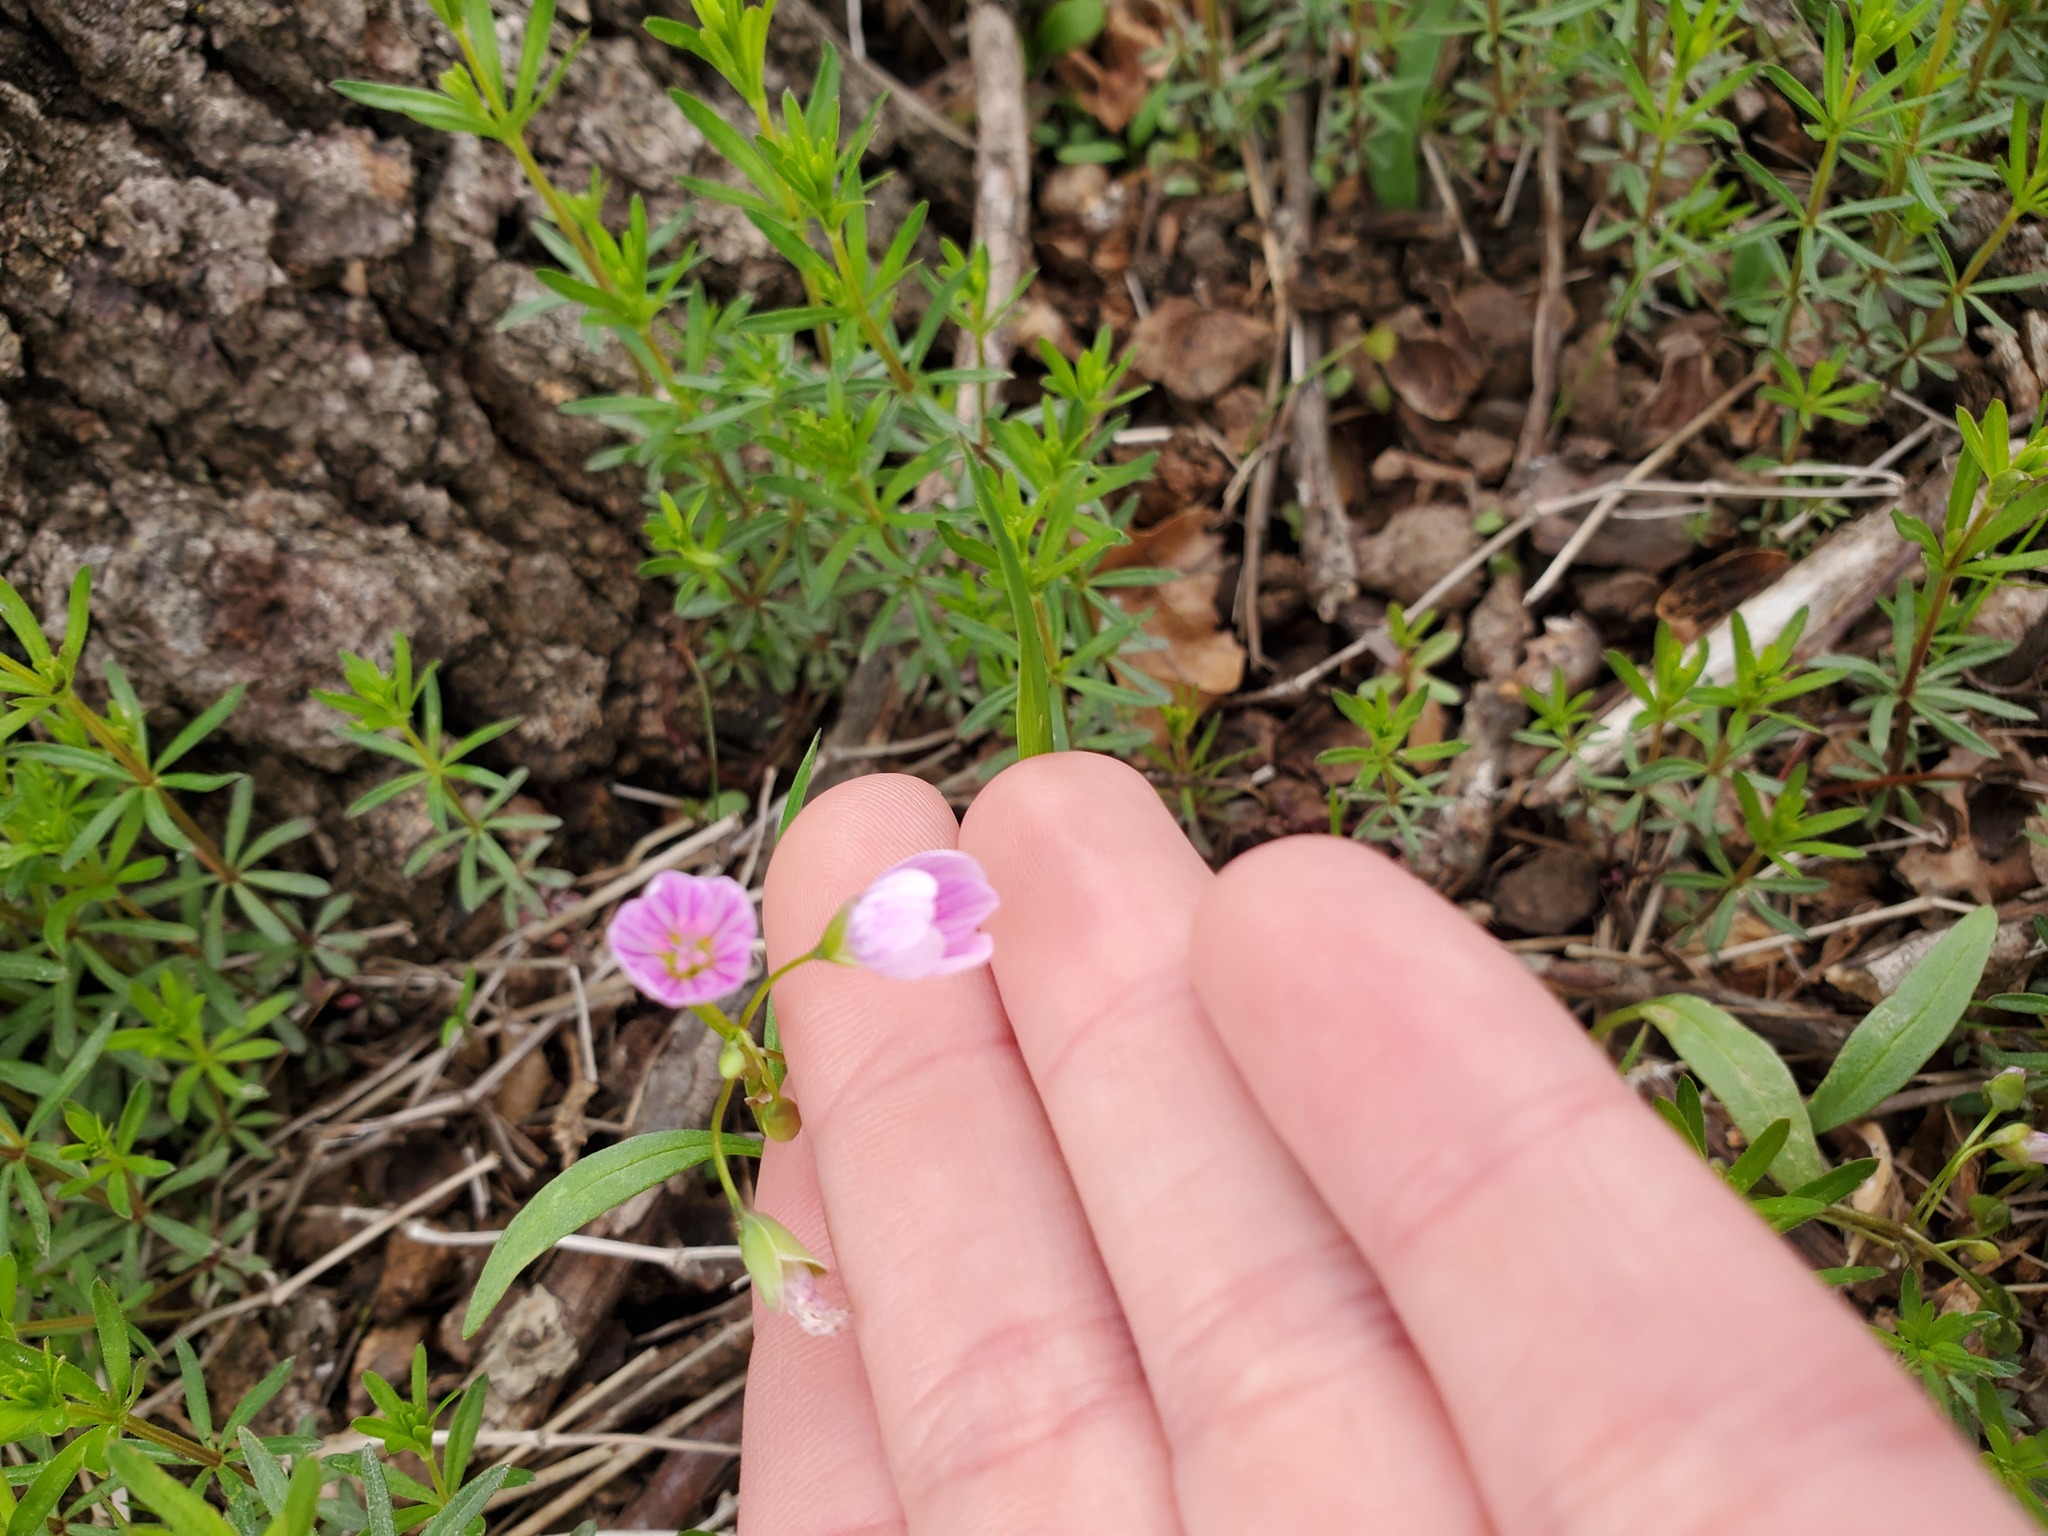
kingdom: Plantae
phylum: Tracheophyta
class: Magnoliopsida
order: Caryophyllales
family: Montiaceae
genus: Claytonia
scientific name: Claytonia virginica
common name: Virginia springbeauty
